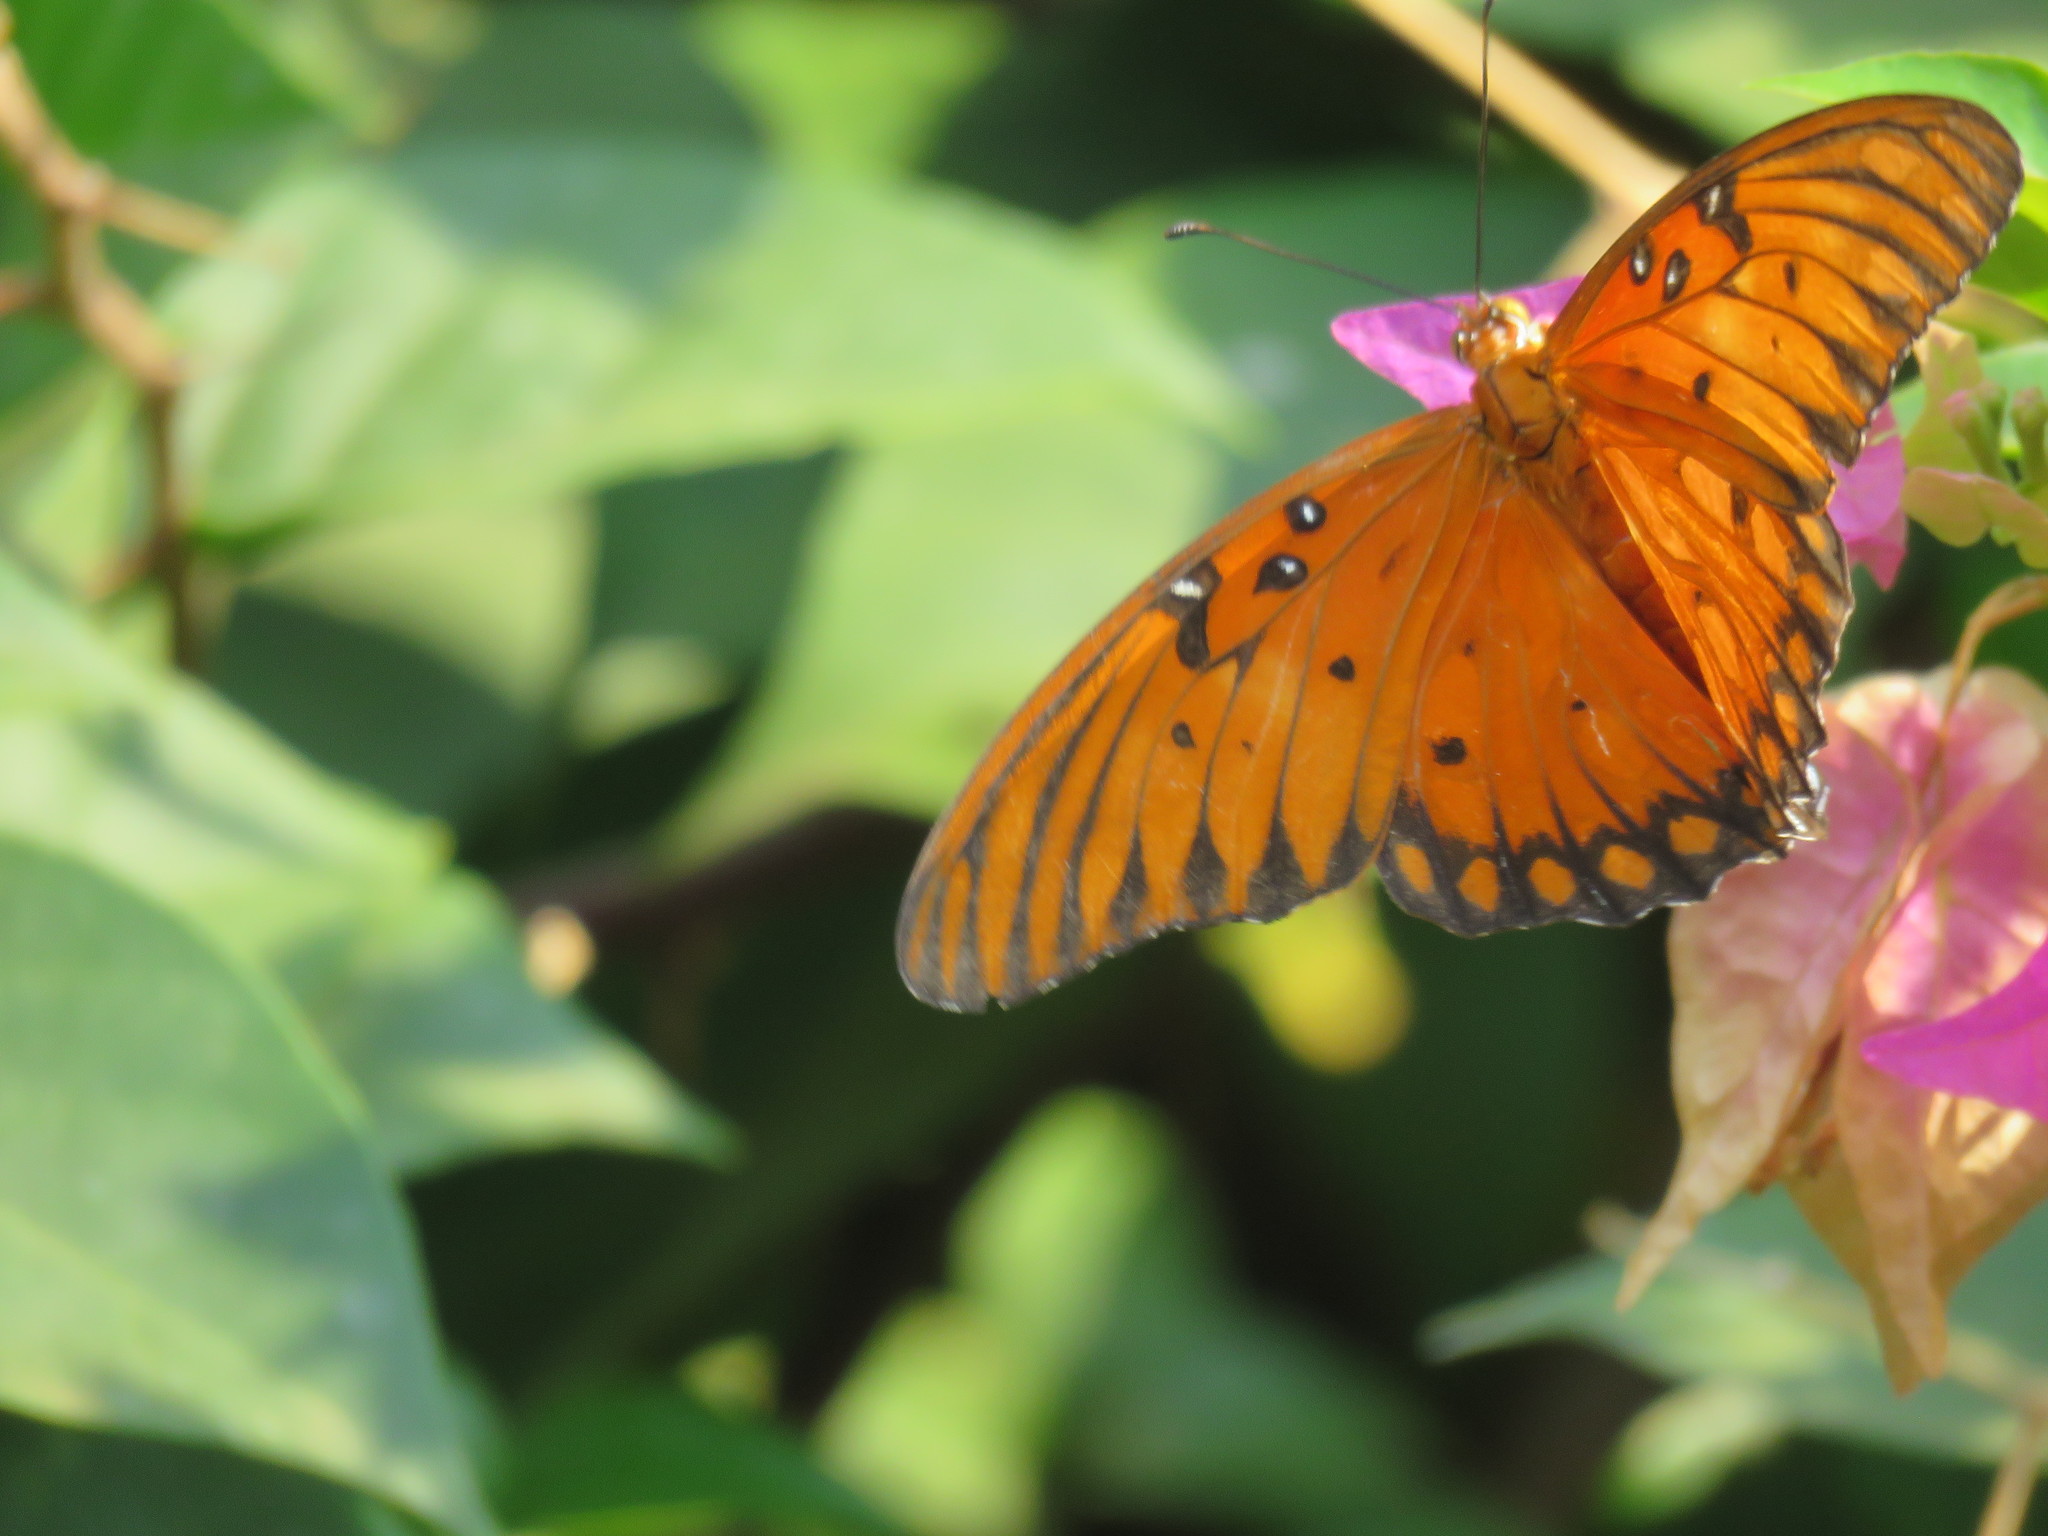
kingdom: Animalia
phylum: Arthropoda
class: Insecta
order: Lepidoptera
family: Nymphalidae
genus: Dione
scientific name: Dione vanillae
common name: Gulf fritillary
